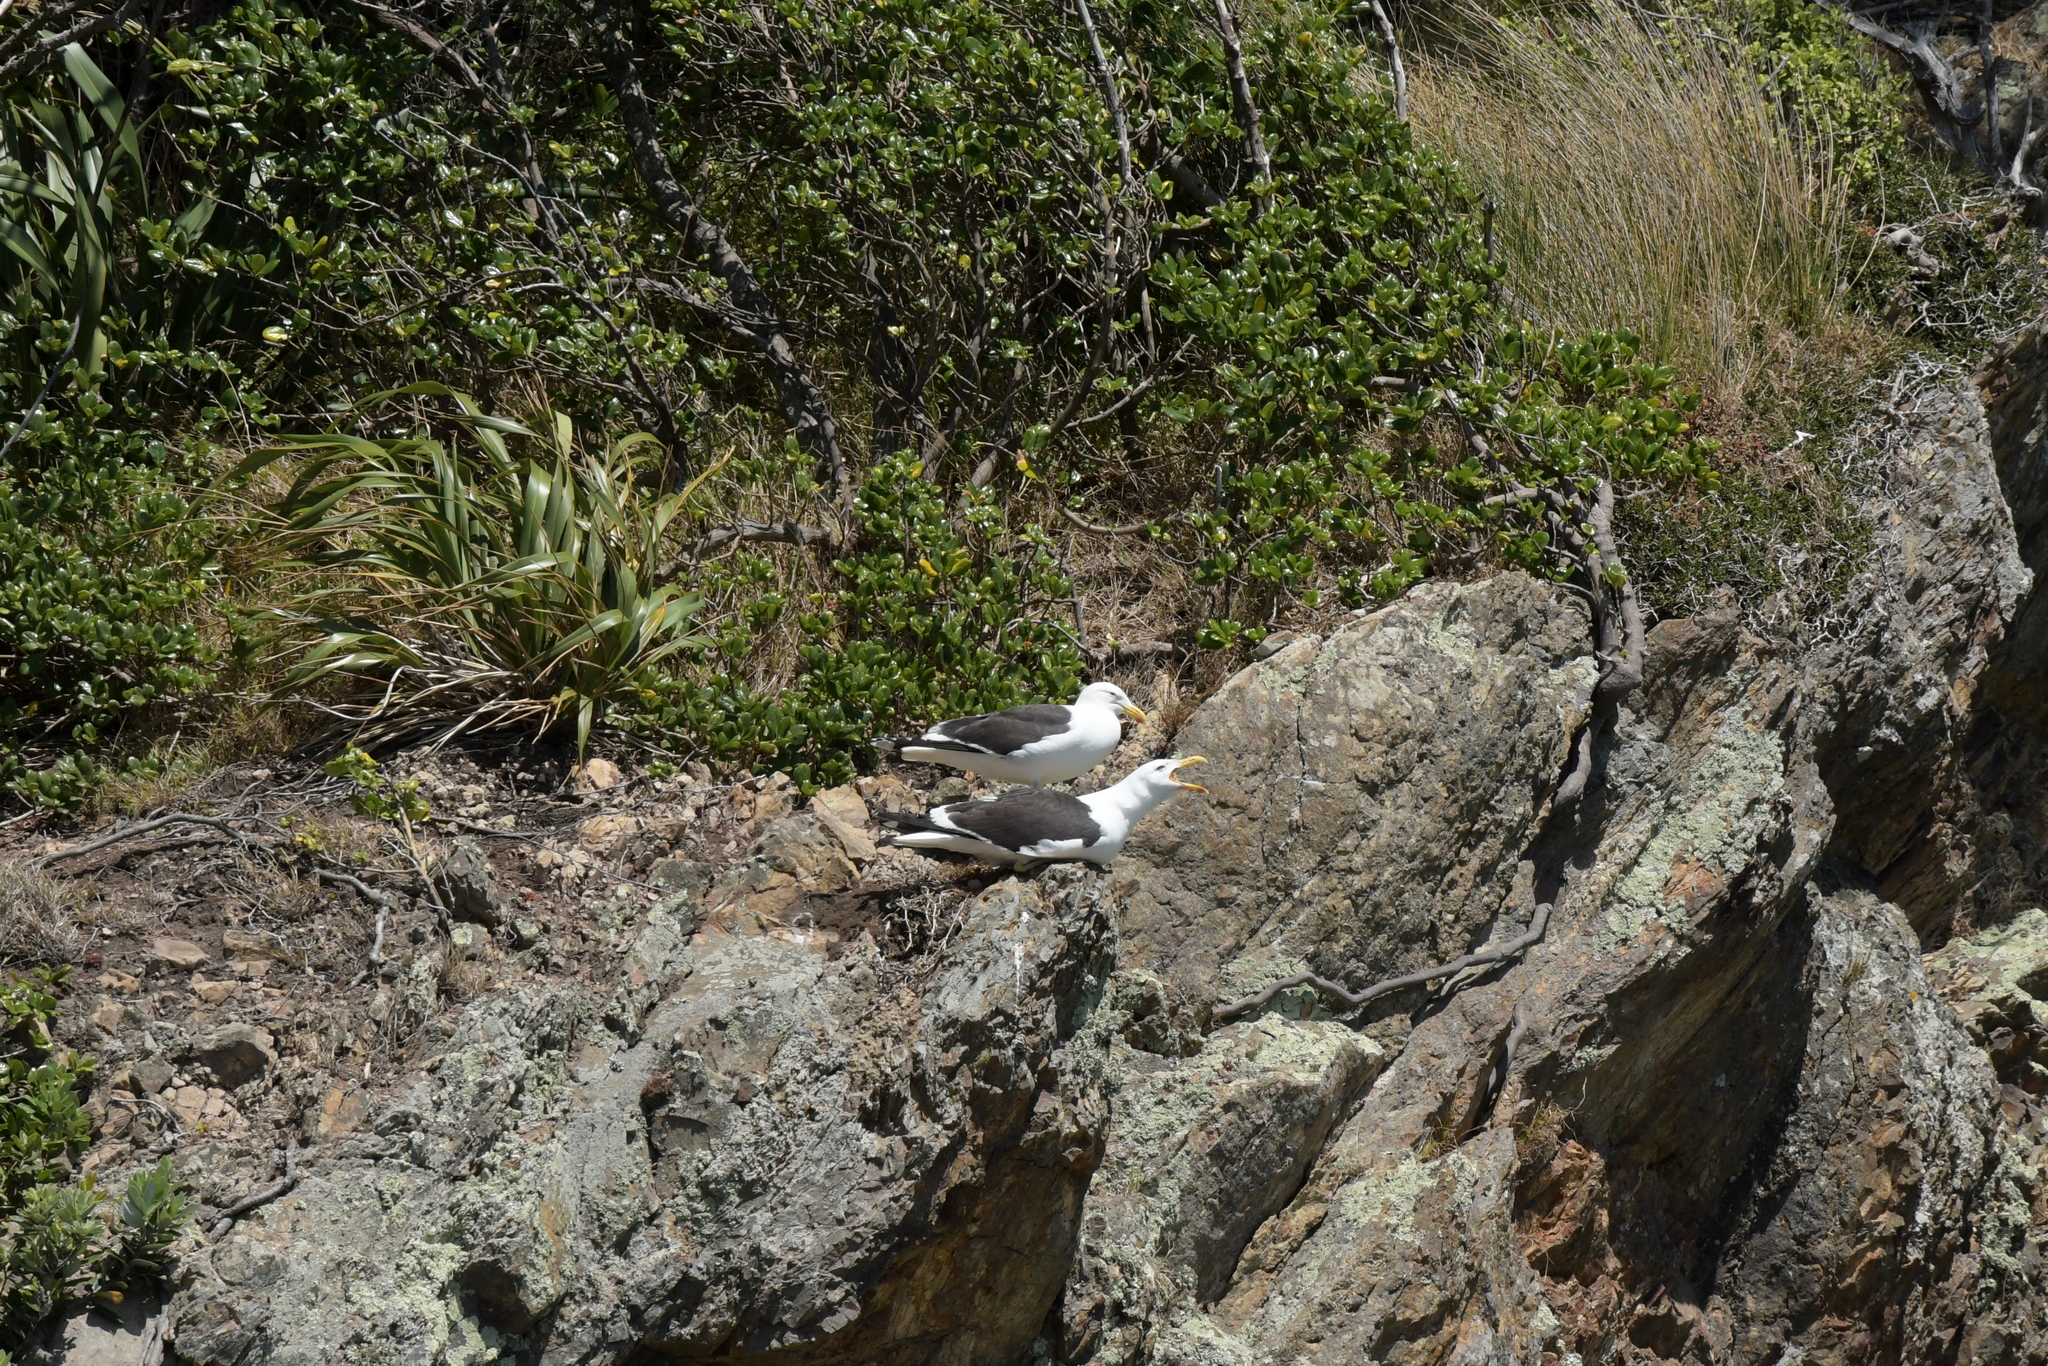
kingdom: Animalia
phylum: Chordata
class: Aves
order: Charadriiformes
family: Laridae
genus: Larus
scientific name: Larus dominicanus
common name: Kelp gull
